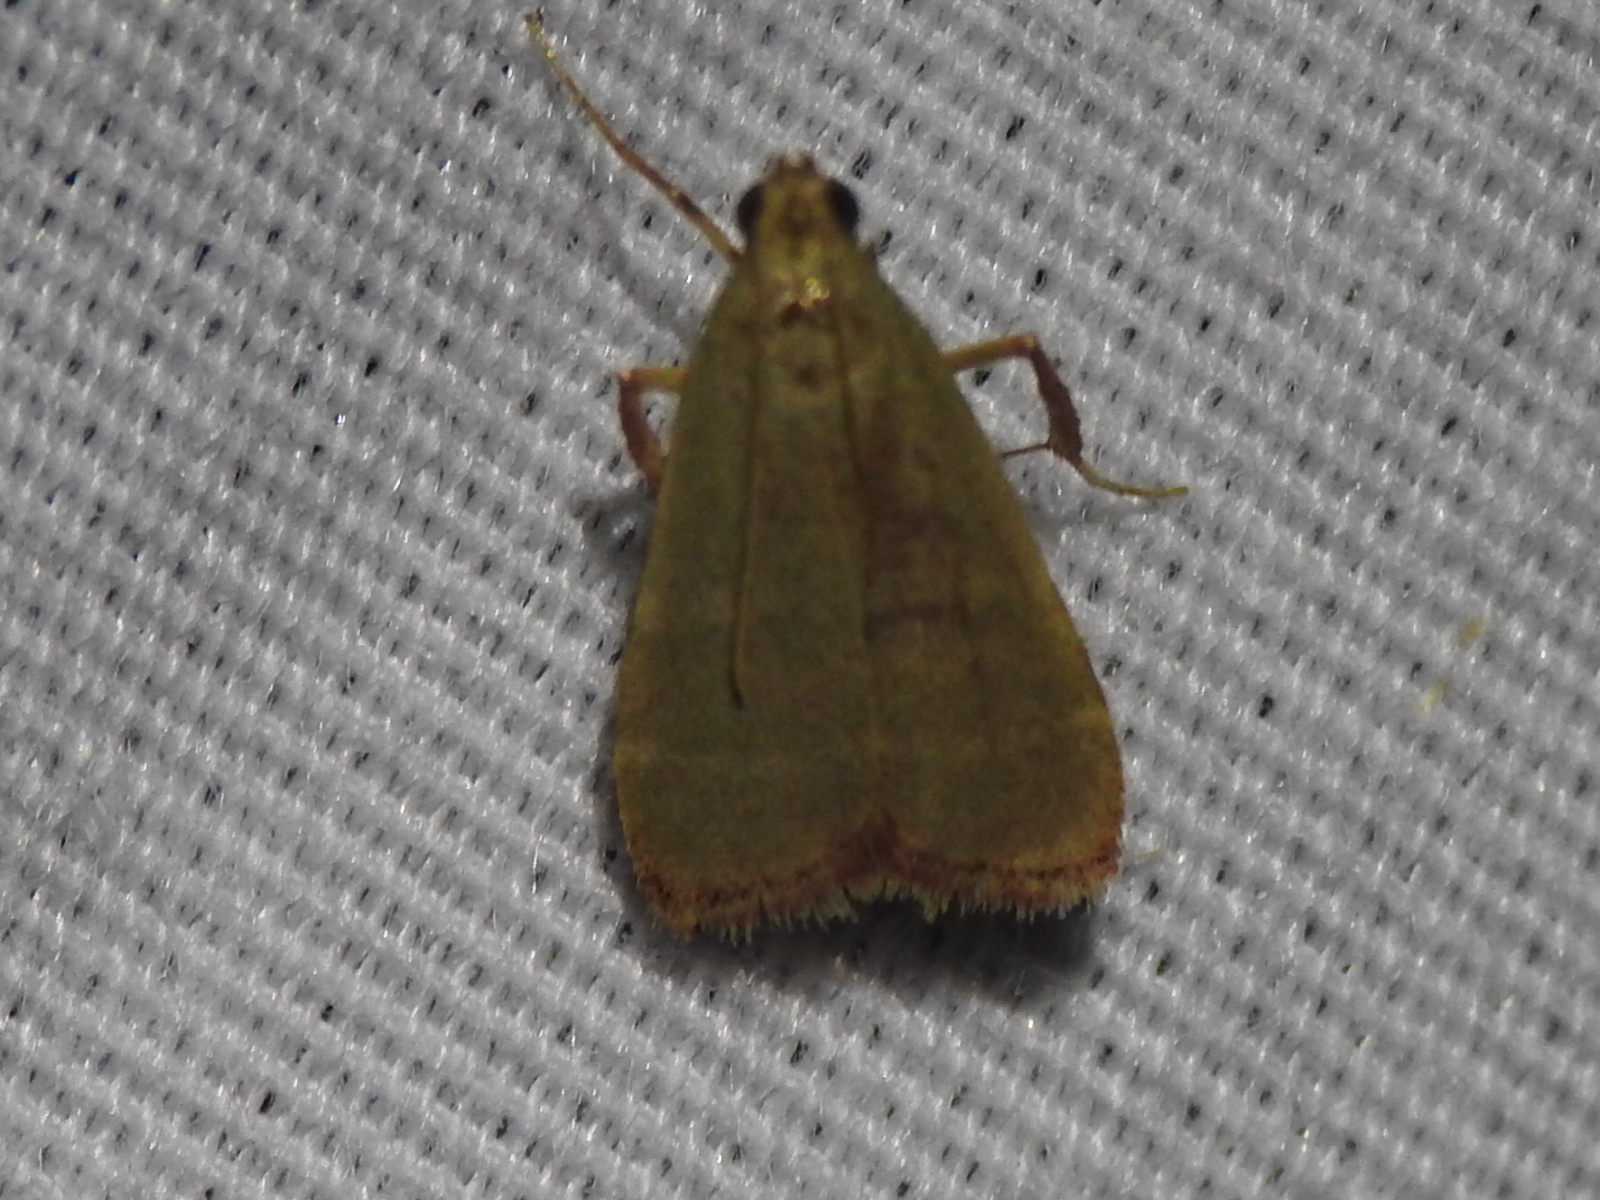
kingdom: Animalia
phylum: Arthropoda
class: Insecta
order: Lepidoptera
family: Pyralidae
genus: Arta
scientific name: Arta olivalis
